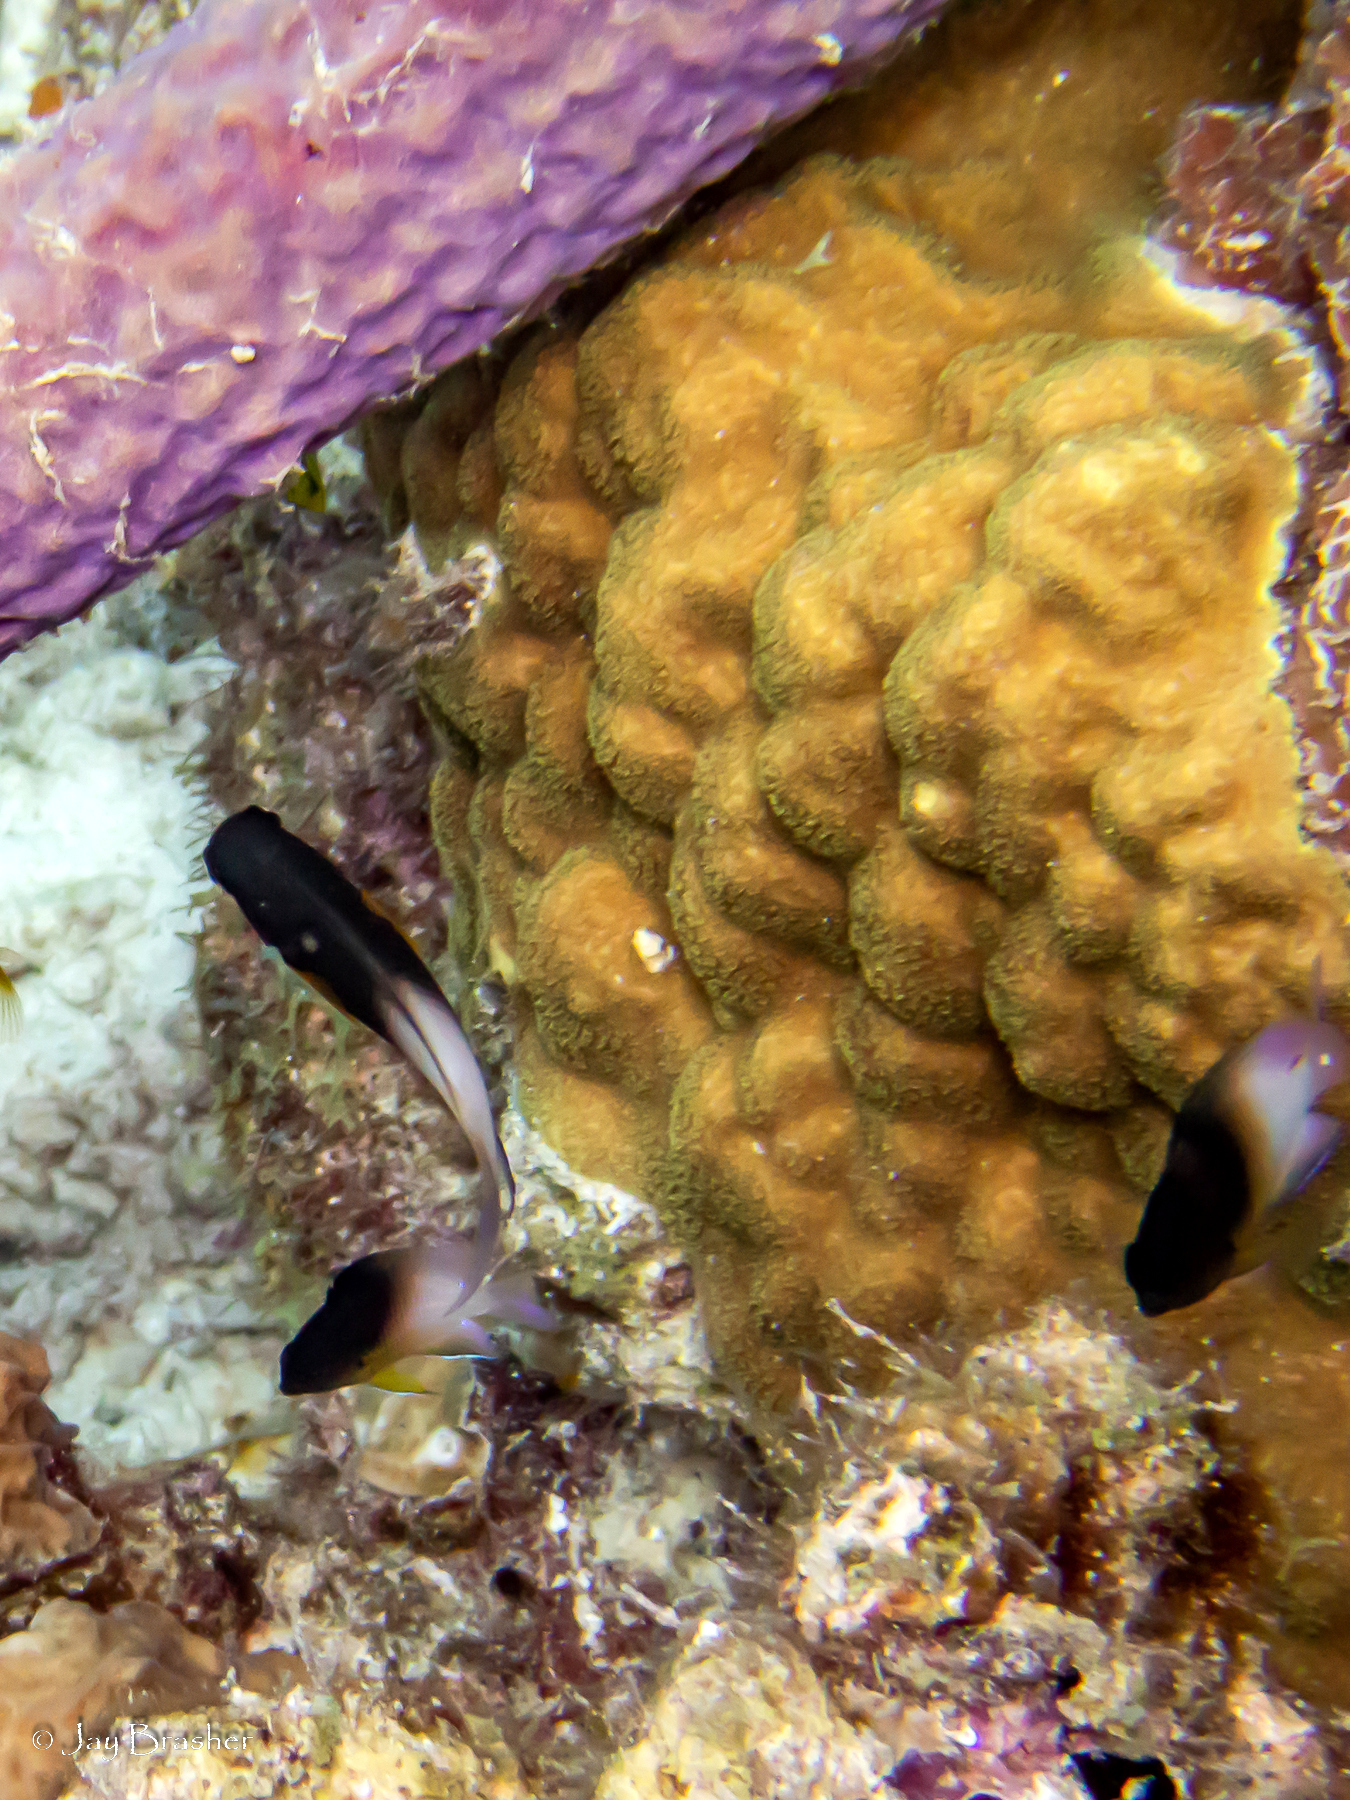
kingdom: Animalia
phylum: Chordata
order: Perciformes
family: Pomacentridae
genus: Stegastes
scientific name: Stegastes partitus
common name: Bicolor damselfish
